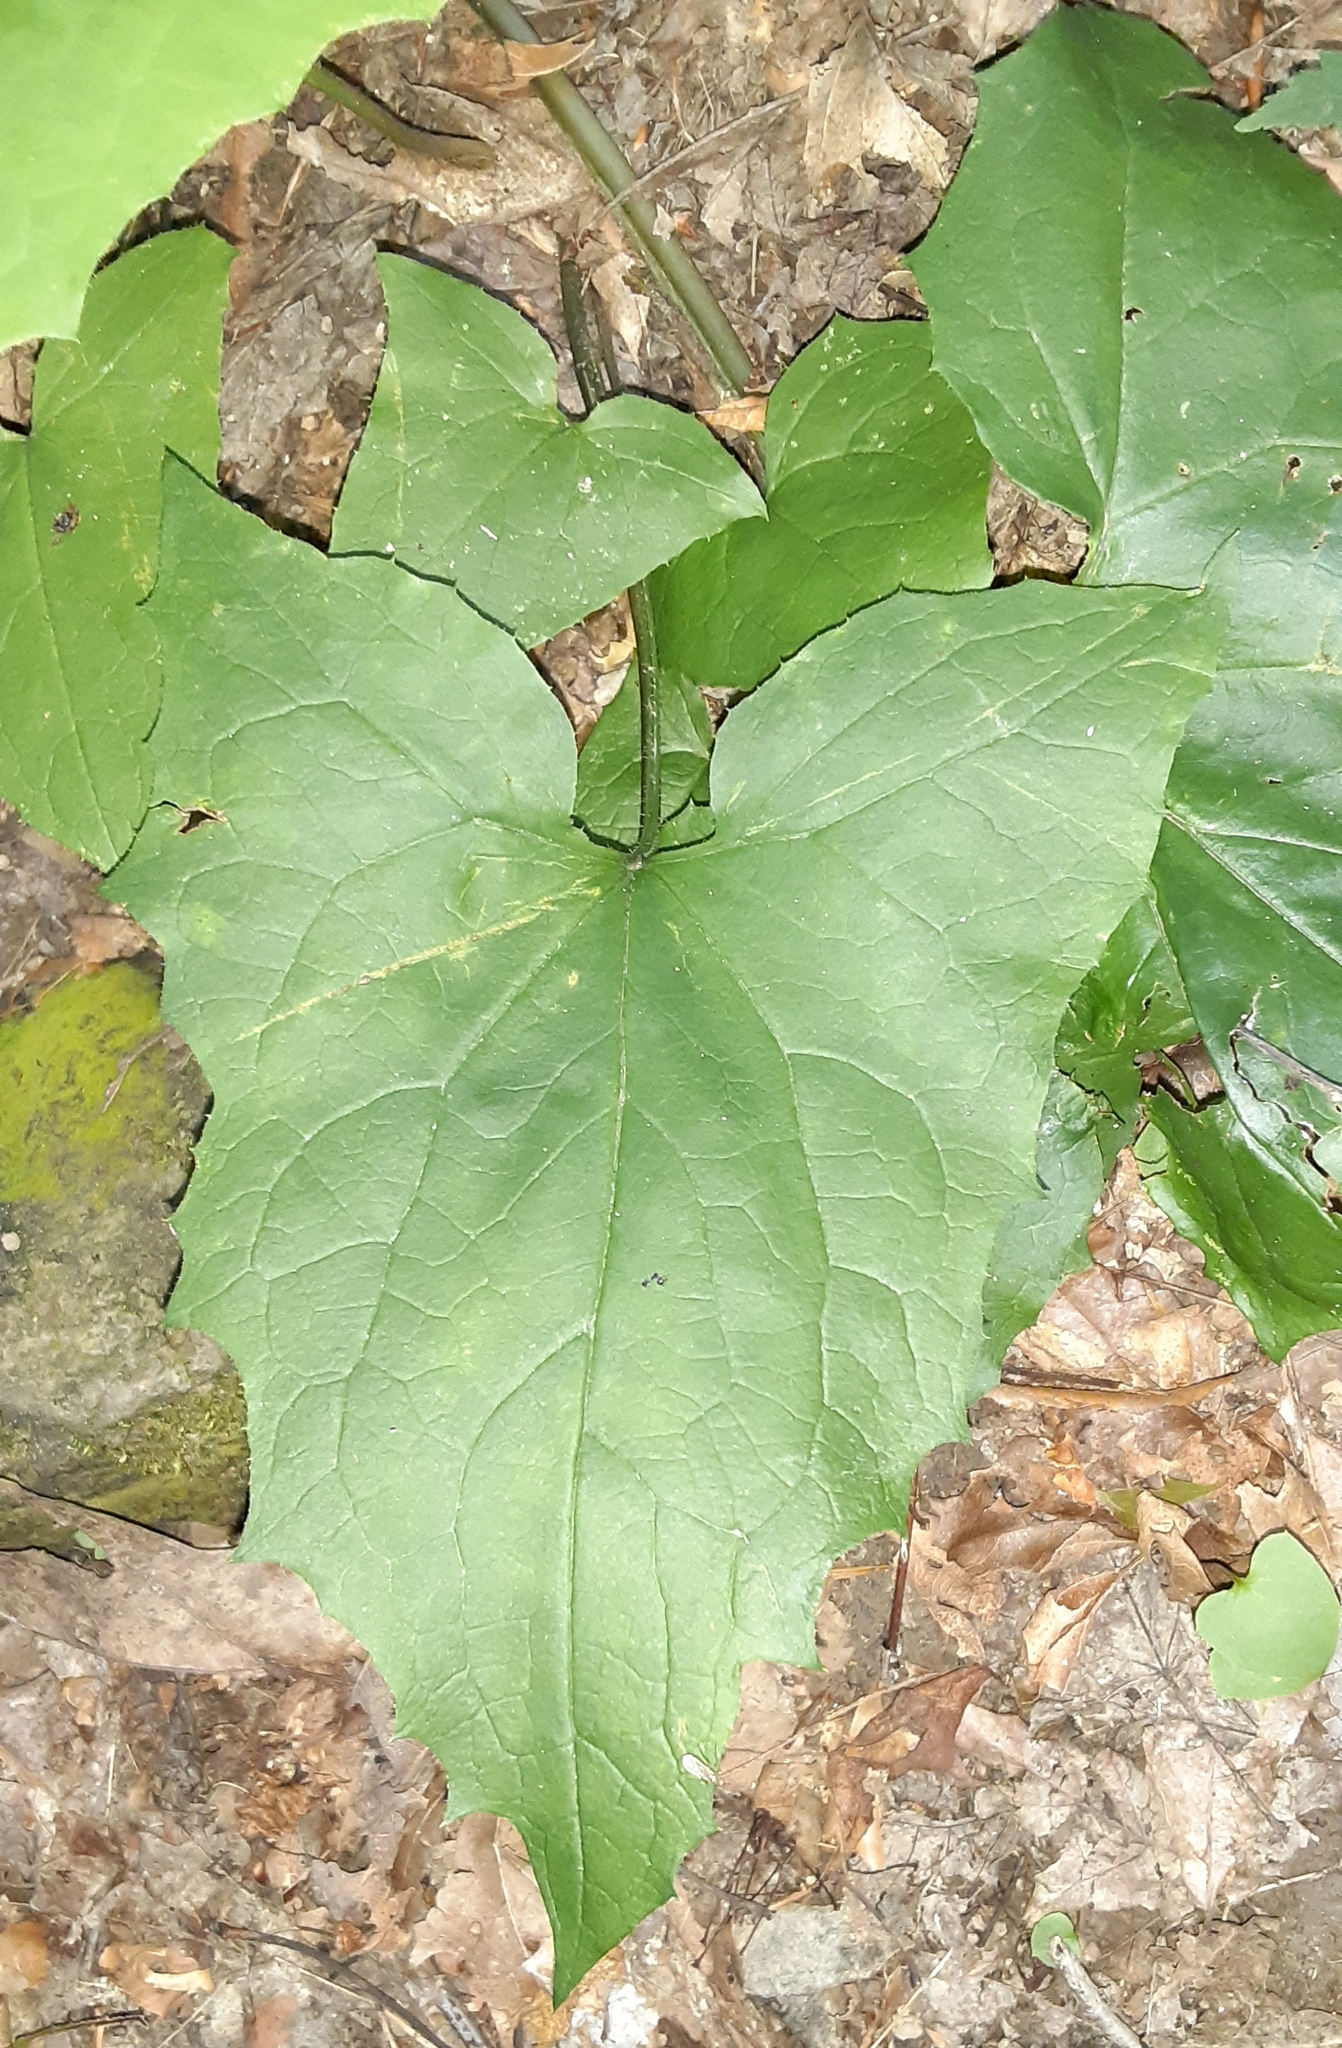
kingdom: Plantae
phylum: Tracheophyta
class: Magnoliopsida
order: Asterales
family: Asteraceae
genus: Nabalus
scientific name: Nabalus
